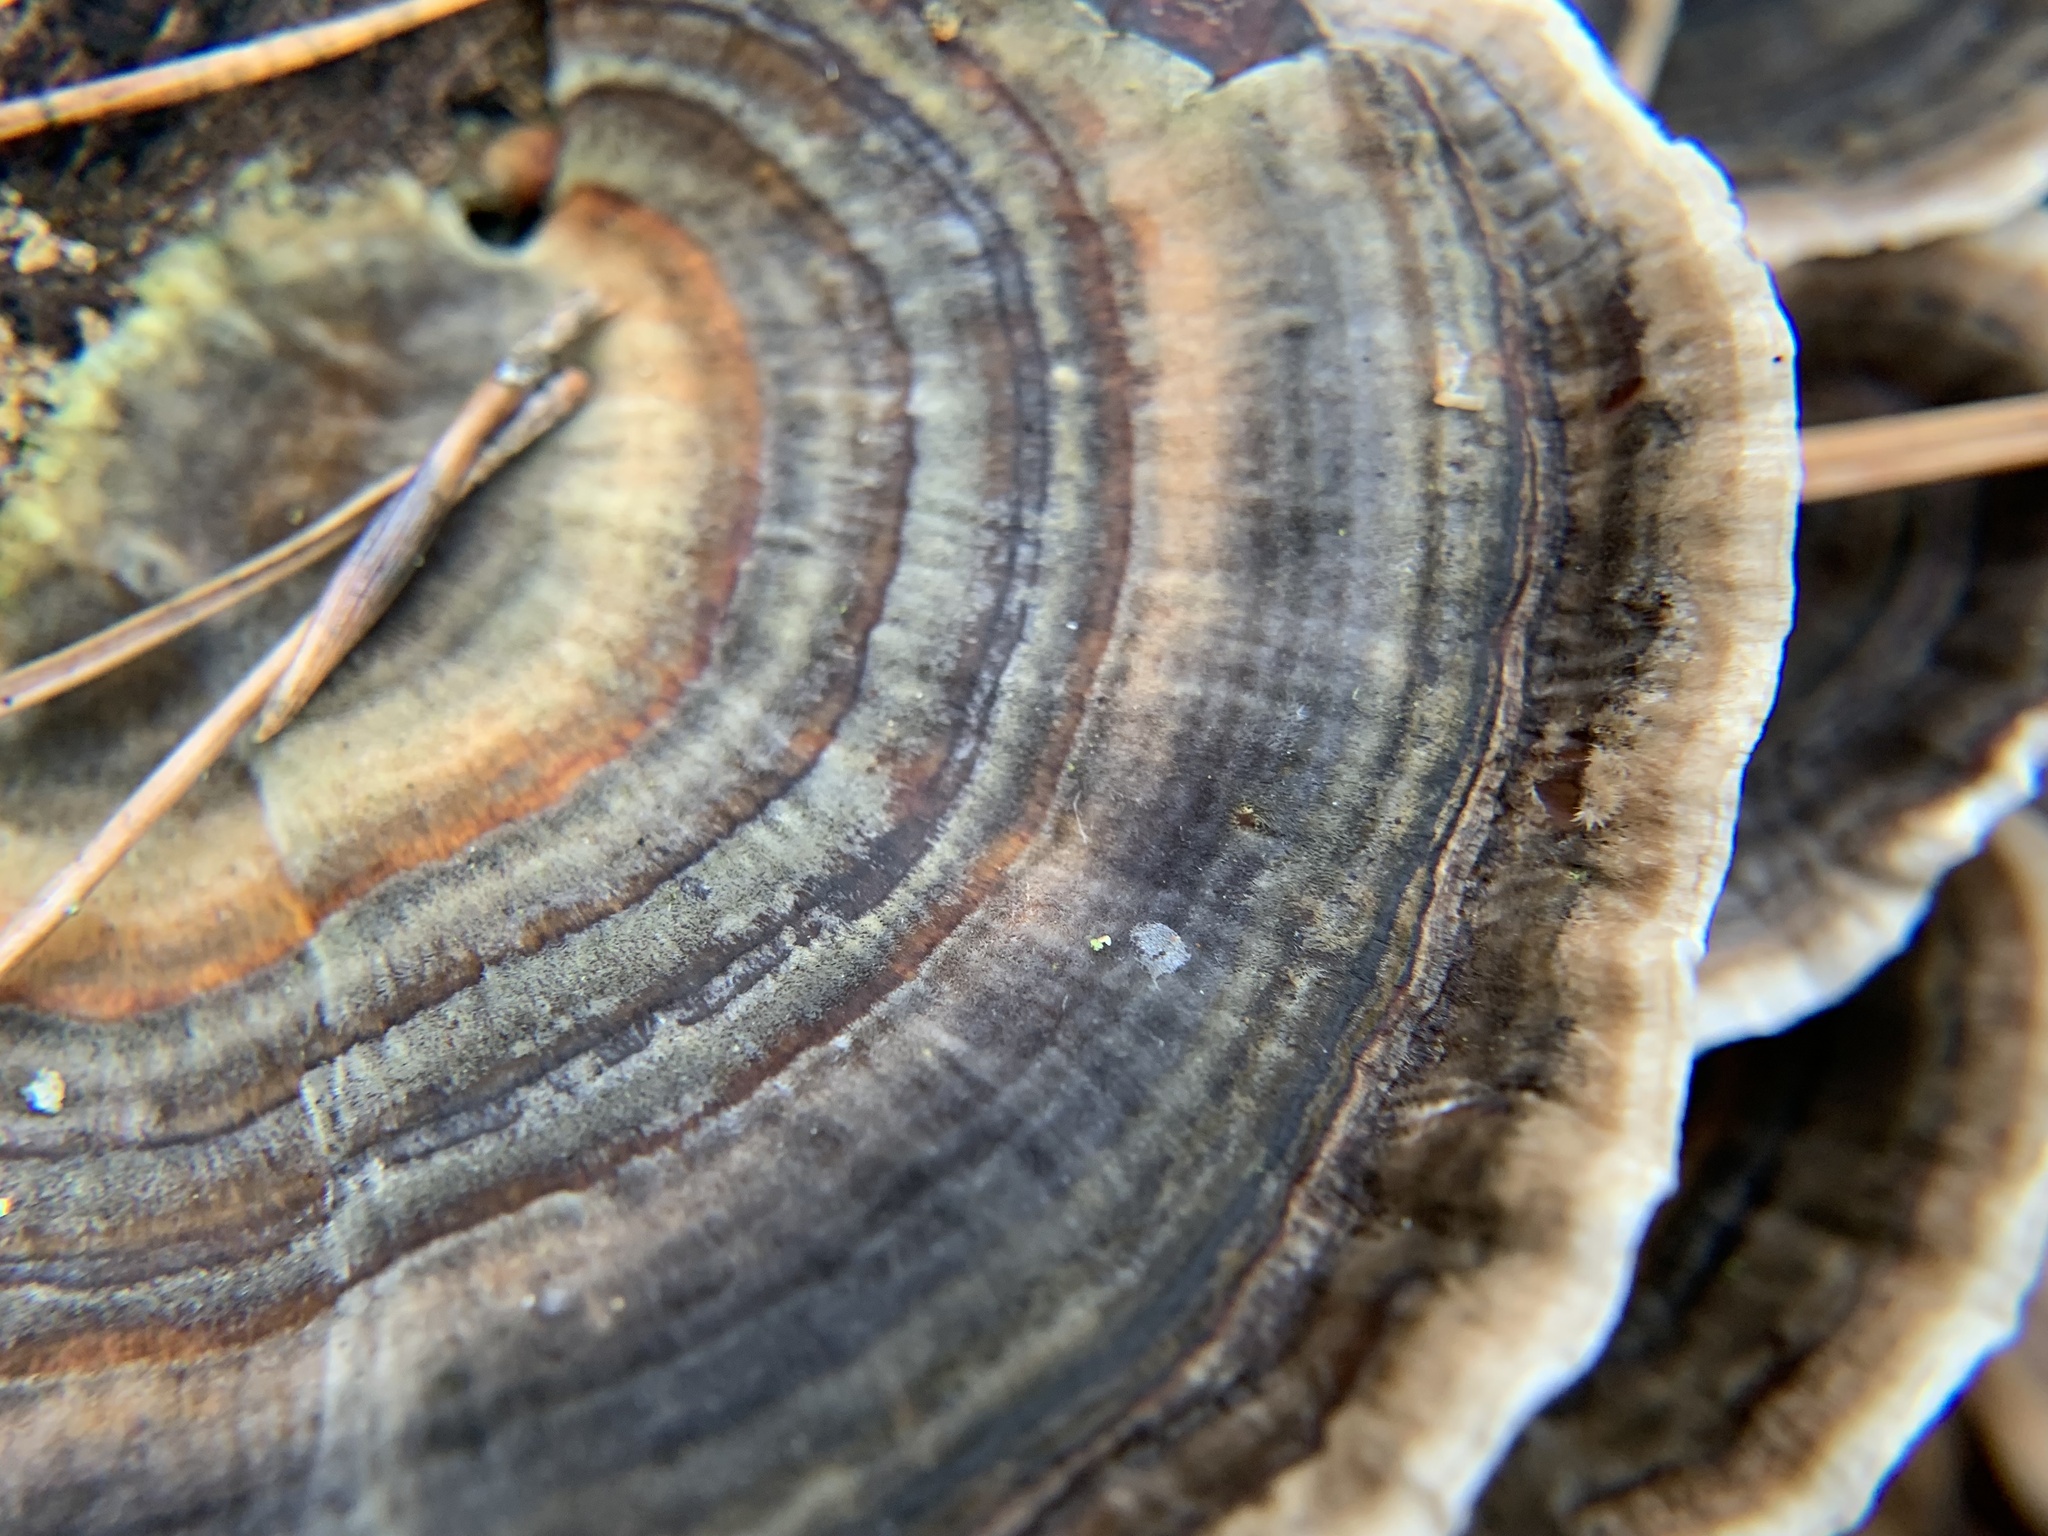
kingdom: Fungi
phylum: Basidiomycota
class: Agaricomycetes
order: Polyporales
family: Polyporaceae
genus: Trametes
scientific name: Trametes versicolor
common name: Turkeytail
